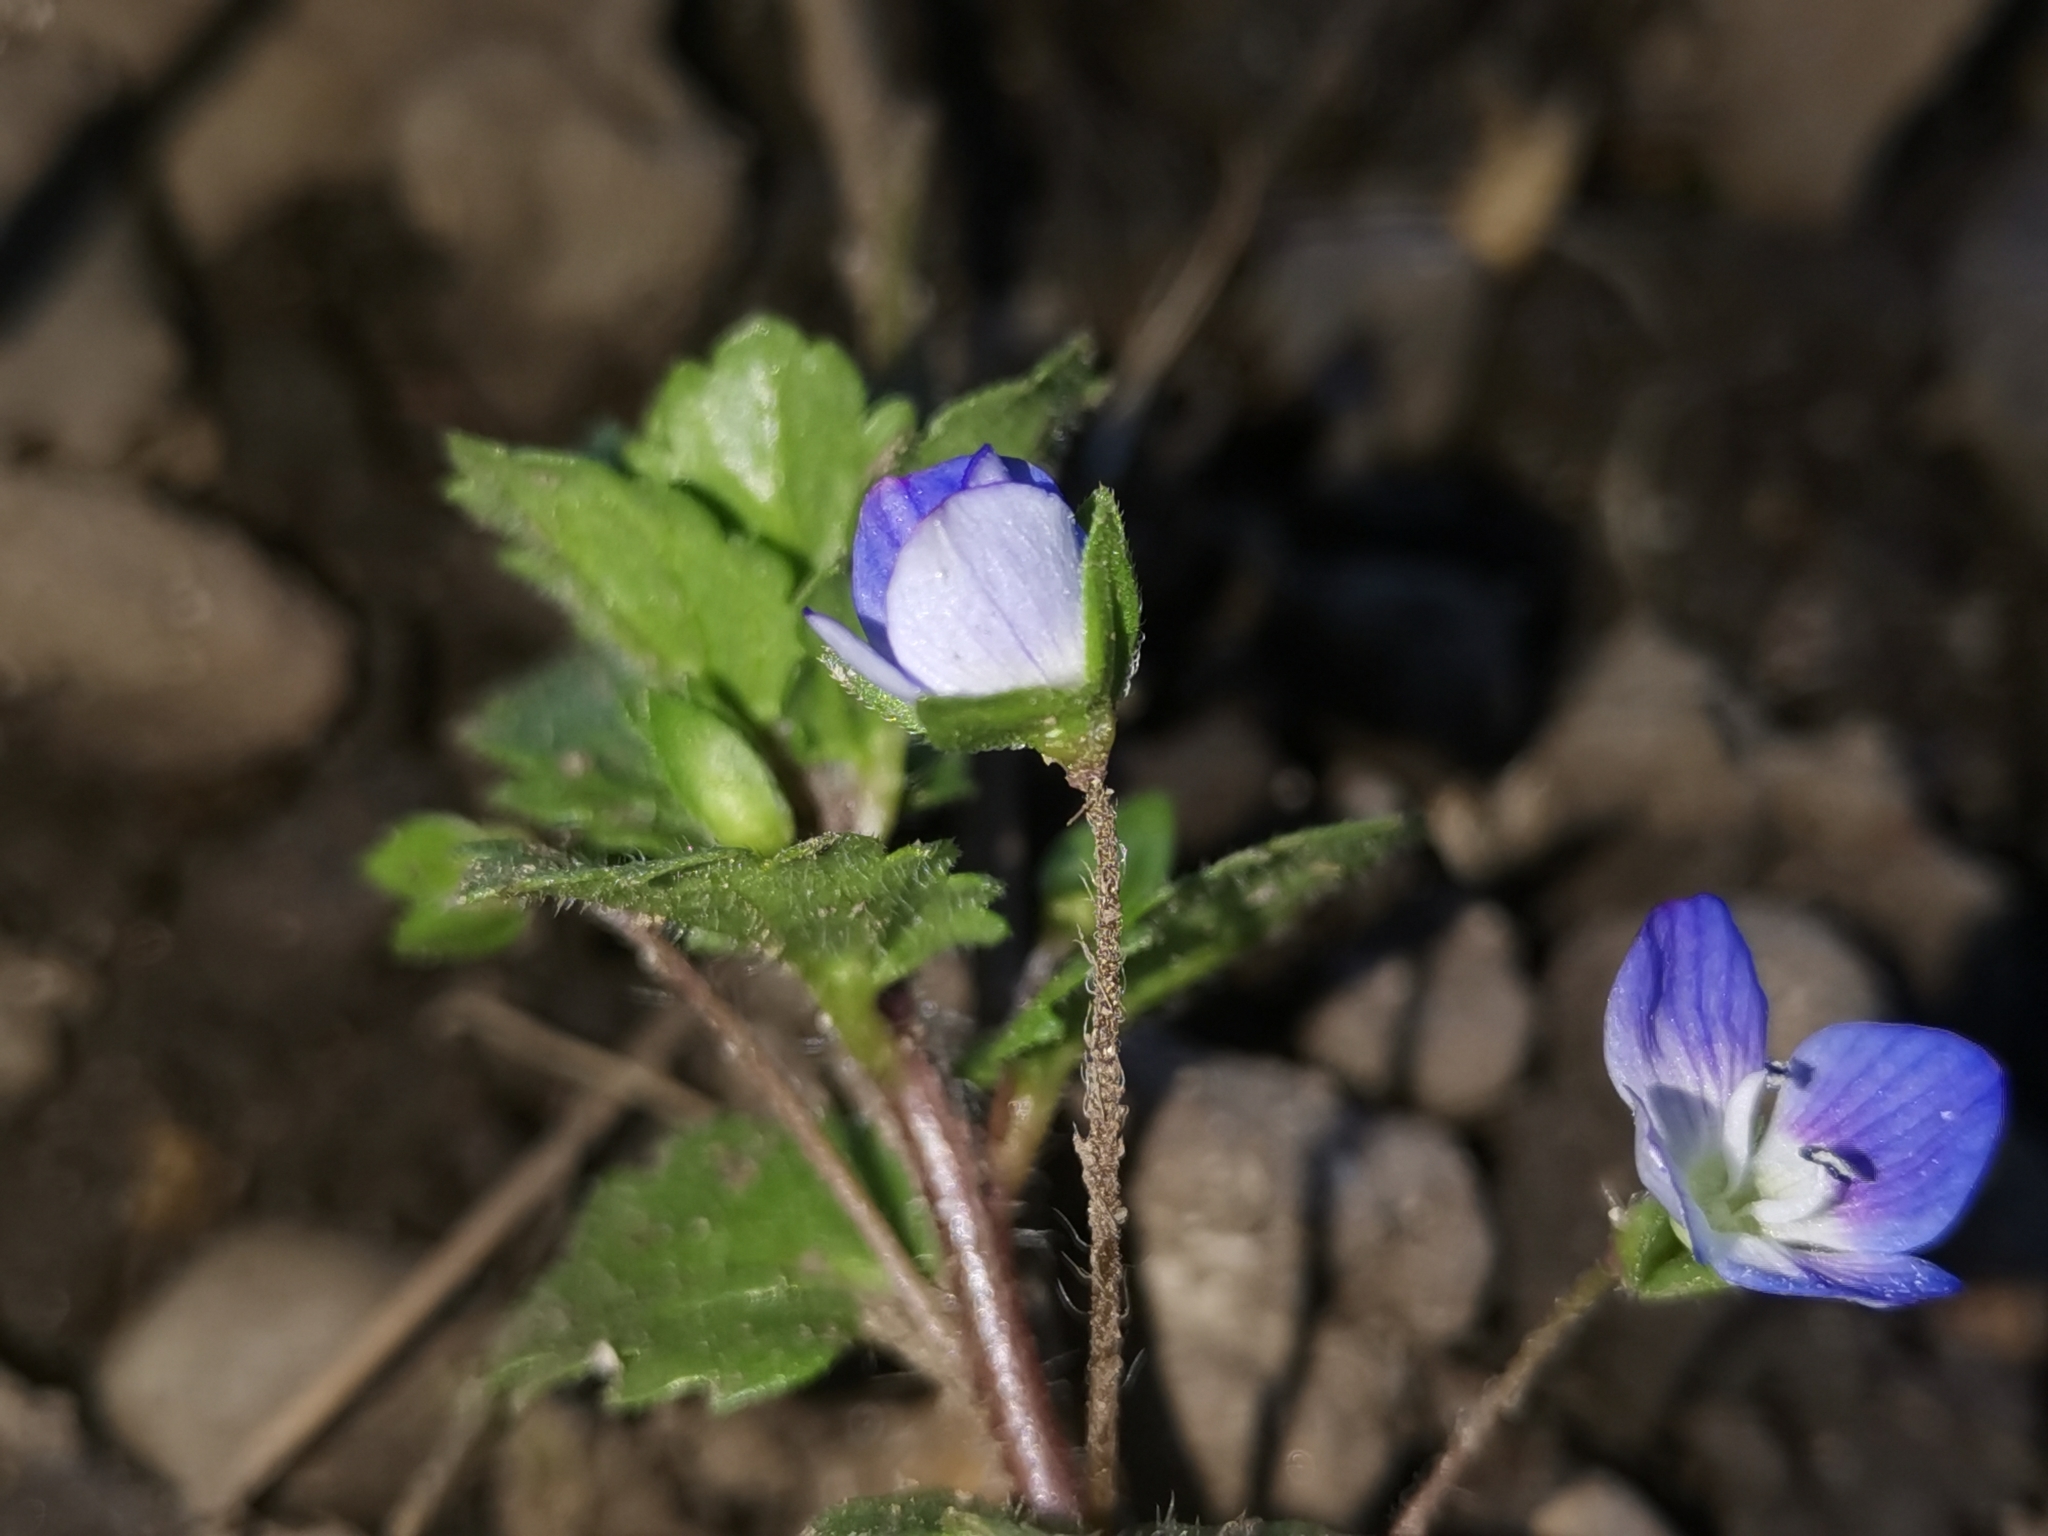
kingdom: Plantae
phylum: Tracheophyta
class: Magnoliopsida
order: Lamiales
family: Plantaginaceae
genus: Veronica
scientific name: Veronica persica
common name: Common field-speedwell
